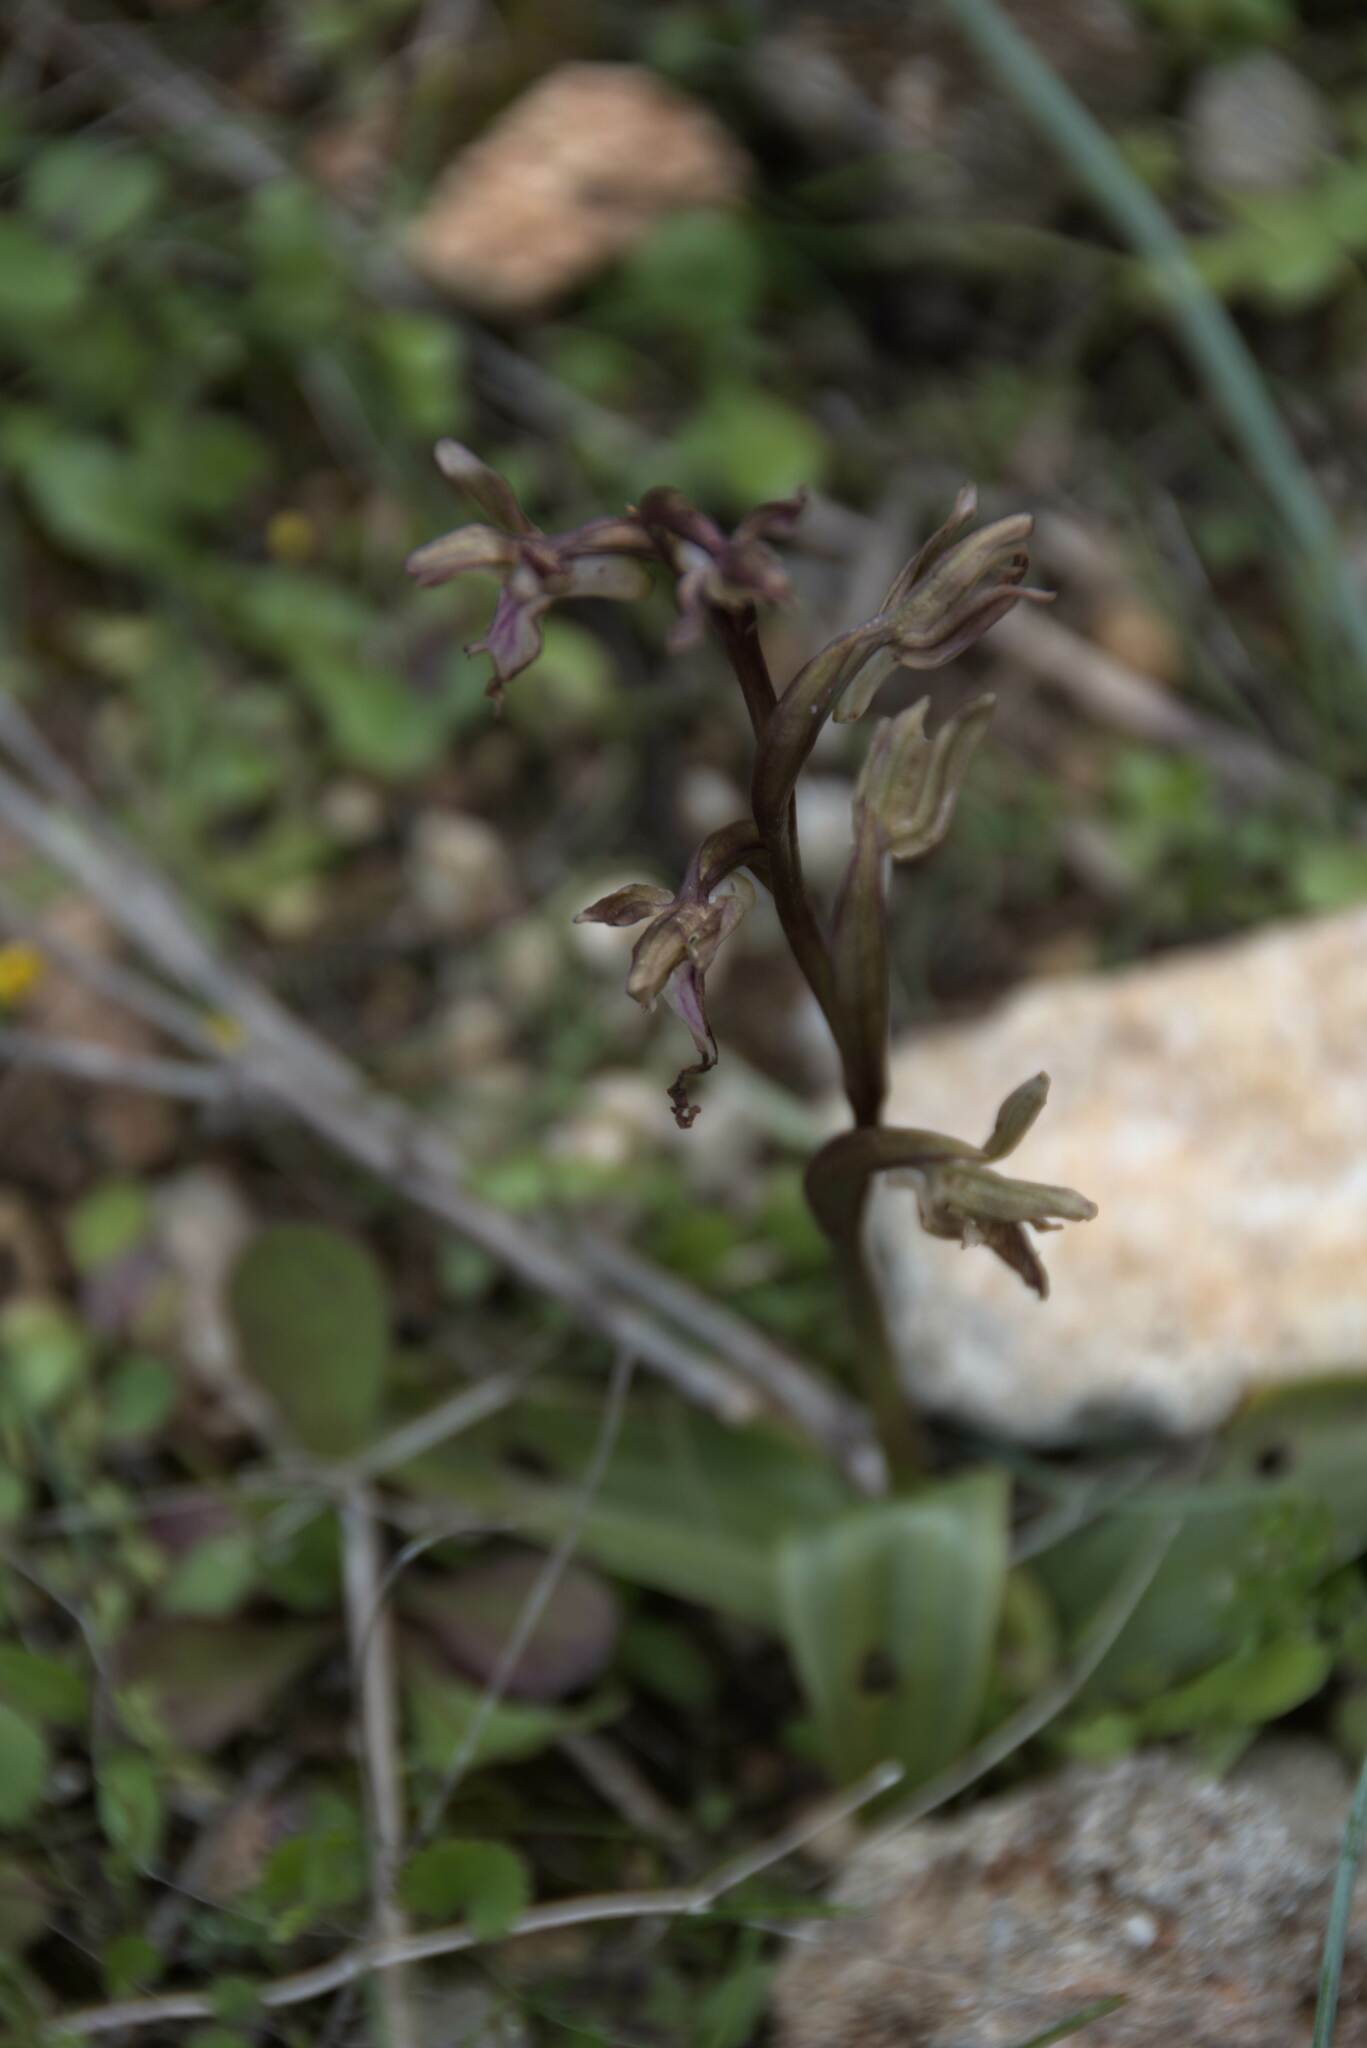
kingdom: Plantae
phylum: Tracheophyta
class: Liliopsida
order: Asparagales
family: Orchidaceae
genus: Anacamptis
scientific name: Anacamptis collina
